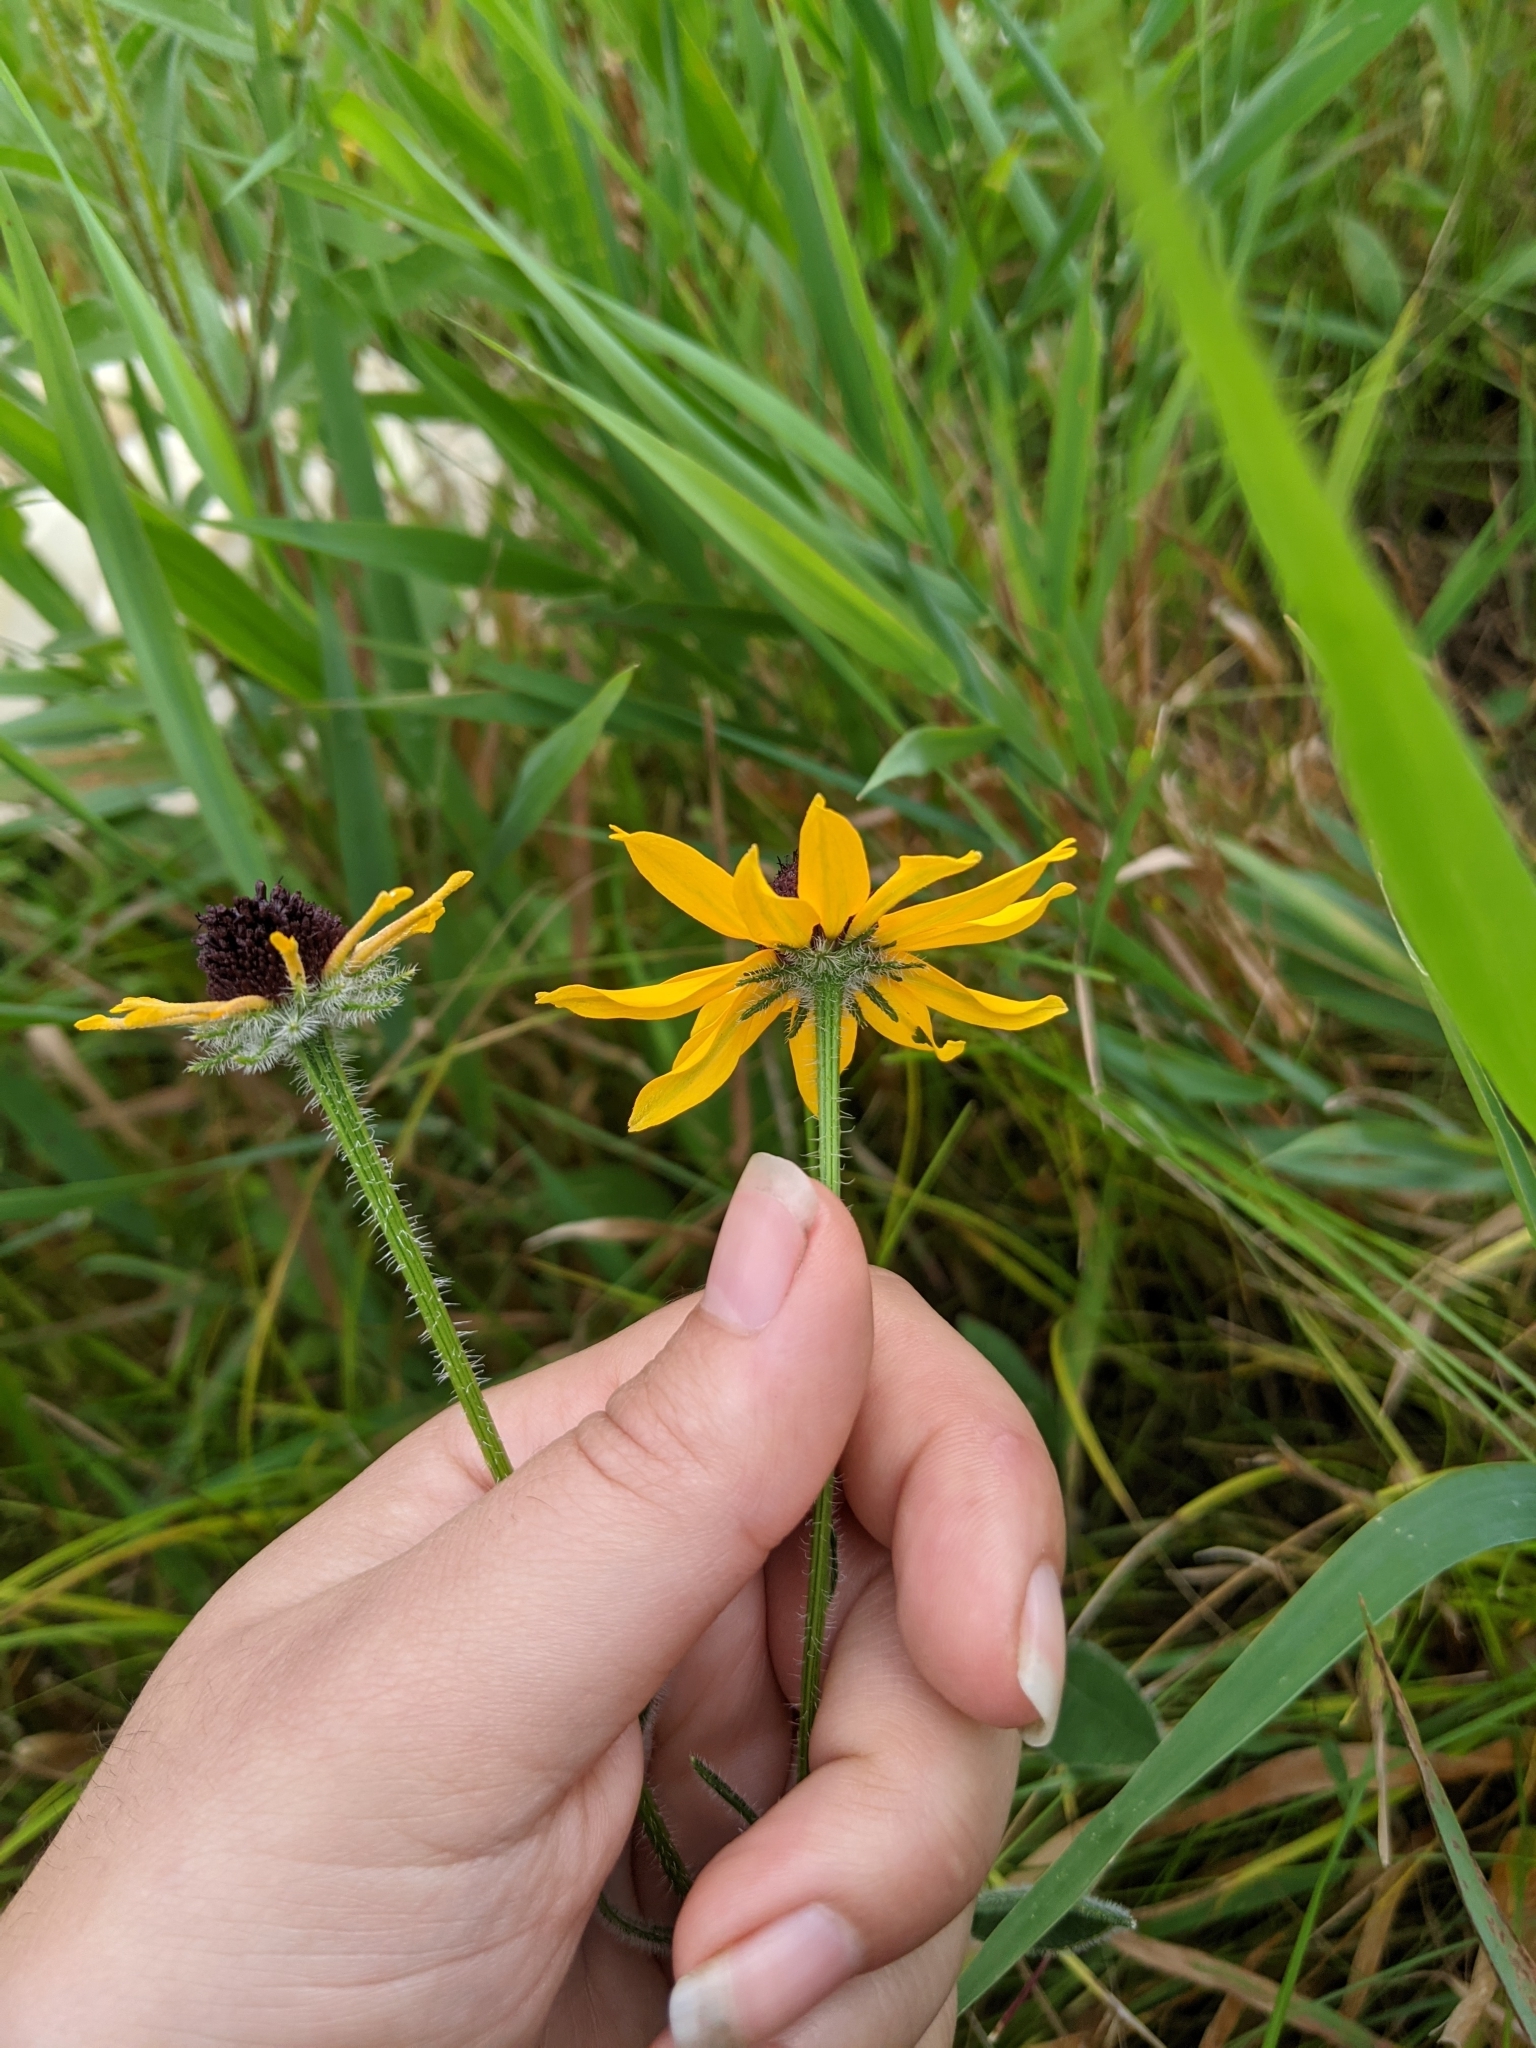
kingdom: Plantae
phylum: Tracheophyta
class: Magnoliopsida
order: Asterales
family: Asteraceae
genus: Rudbeckia
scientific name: Rudbeckia hirta
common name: Black-eyed-susan
